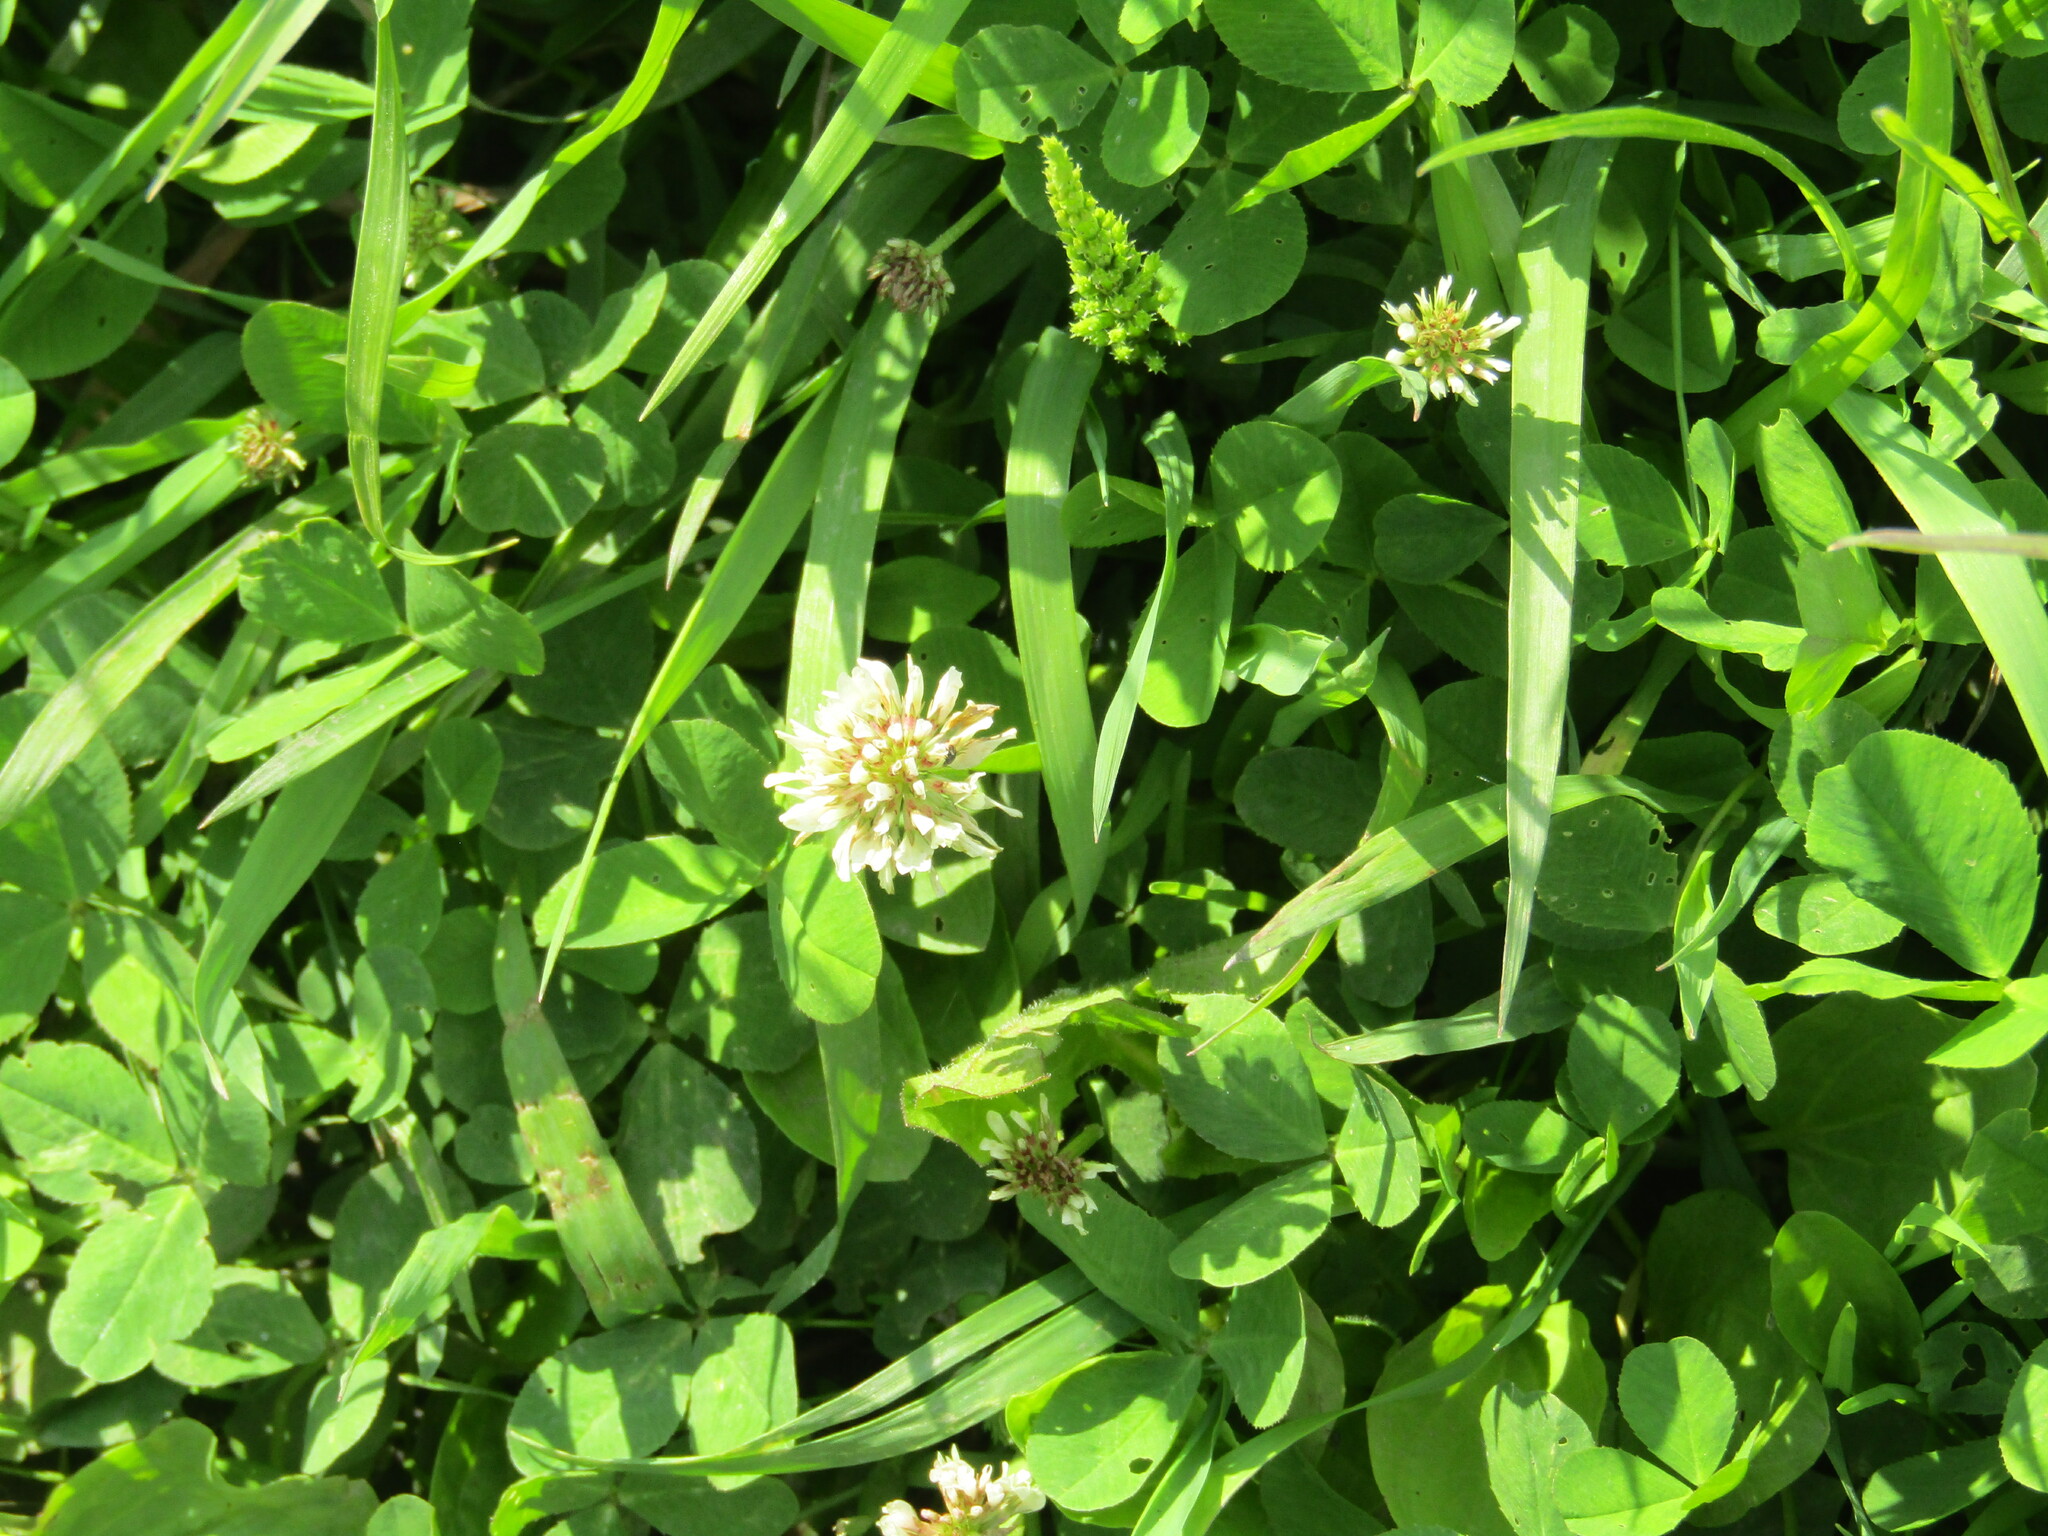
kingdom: Plantae
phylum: Tracheophyta
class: Magnoliopsida
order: Fabales
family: Fabaceae
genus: Trifolium
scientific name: Trifolium repens
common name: White clover
